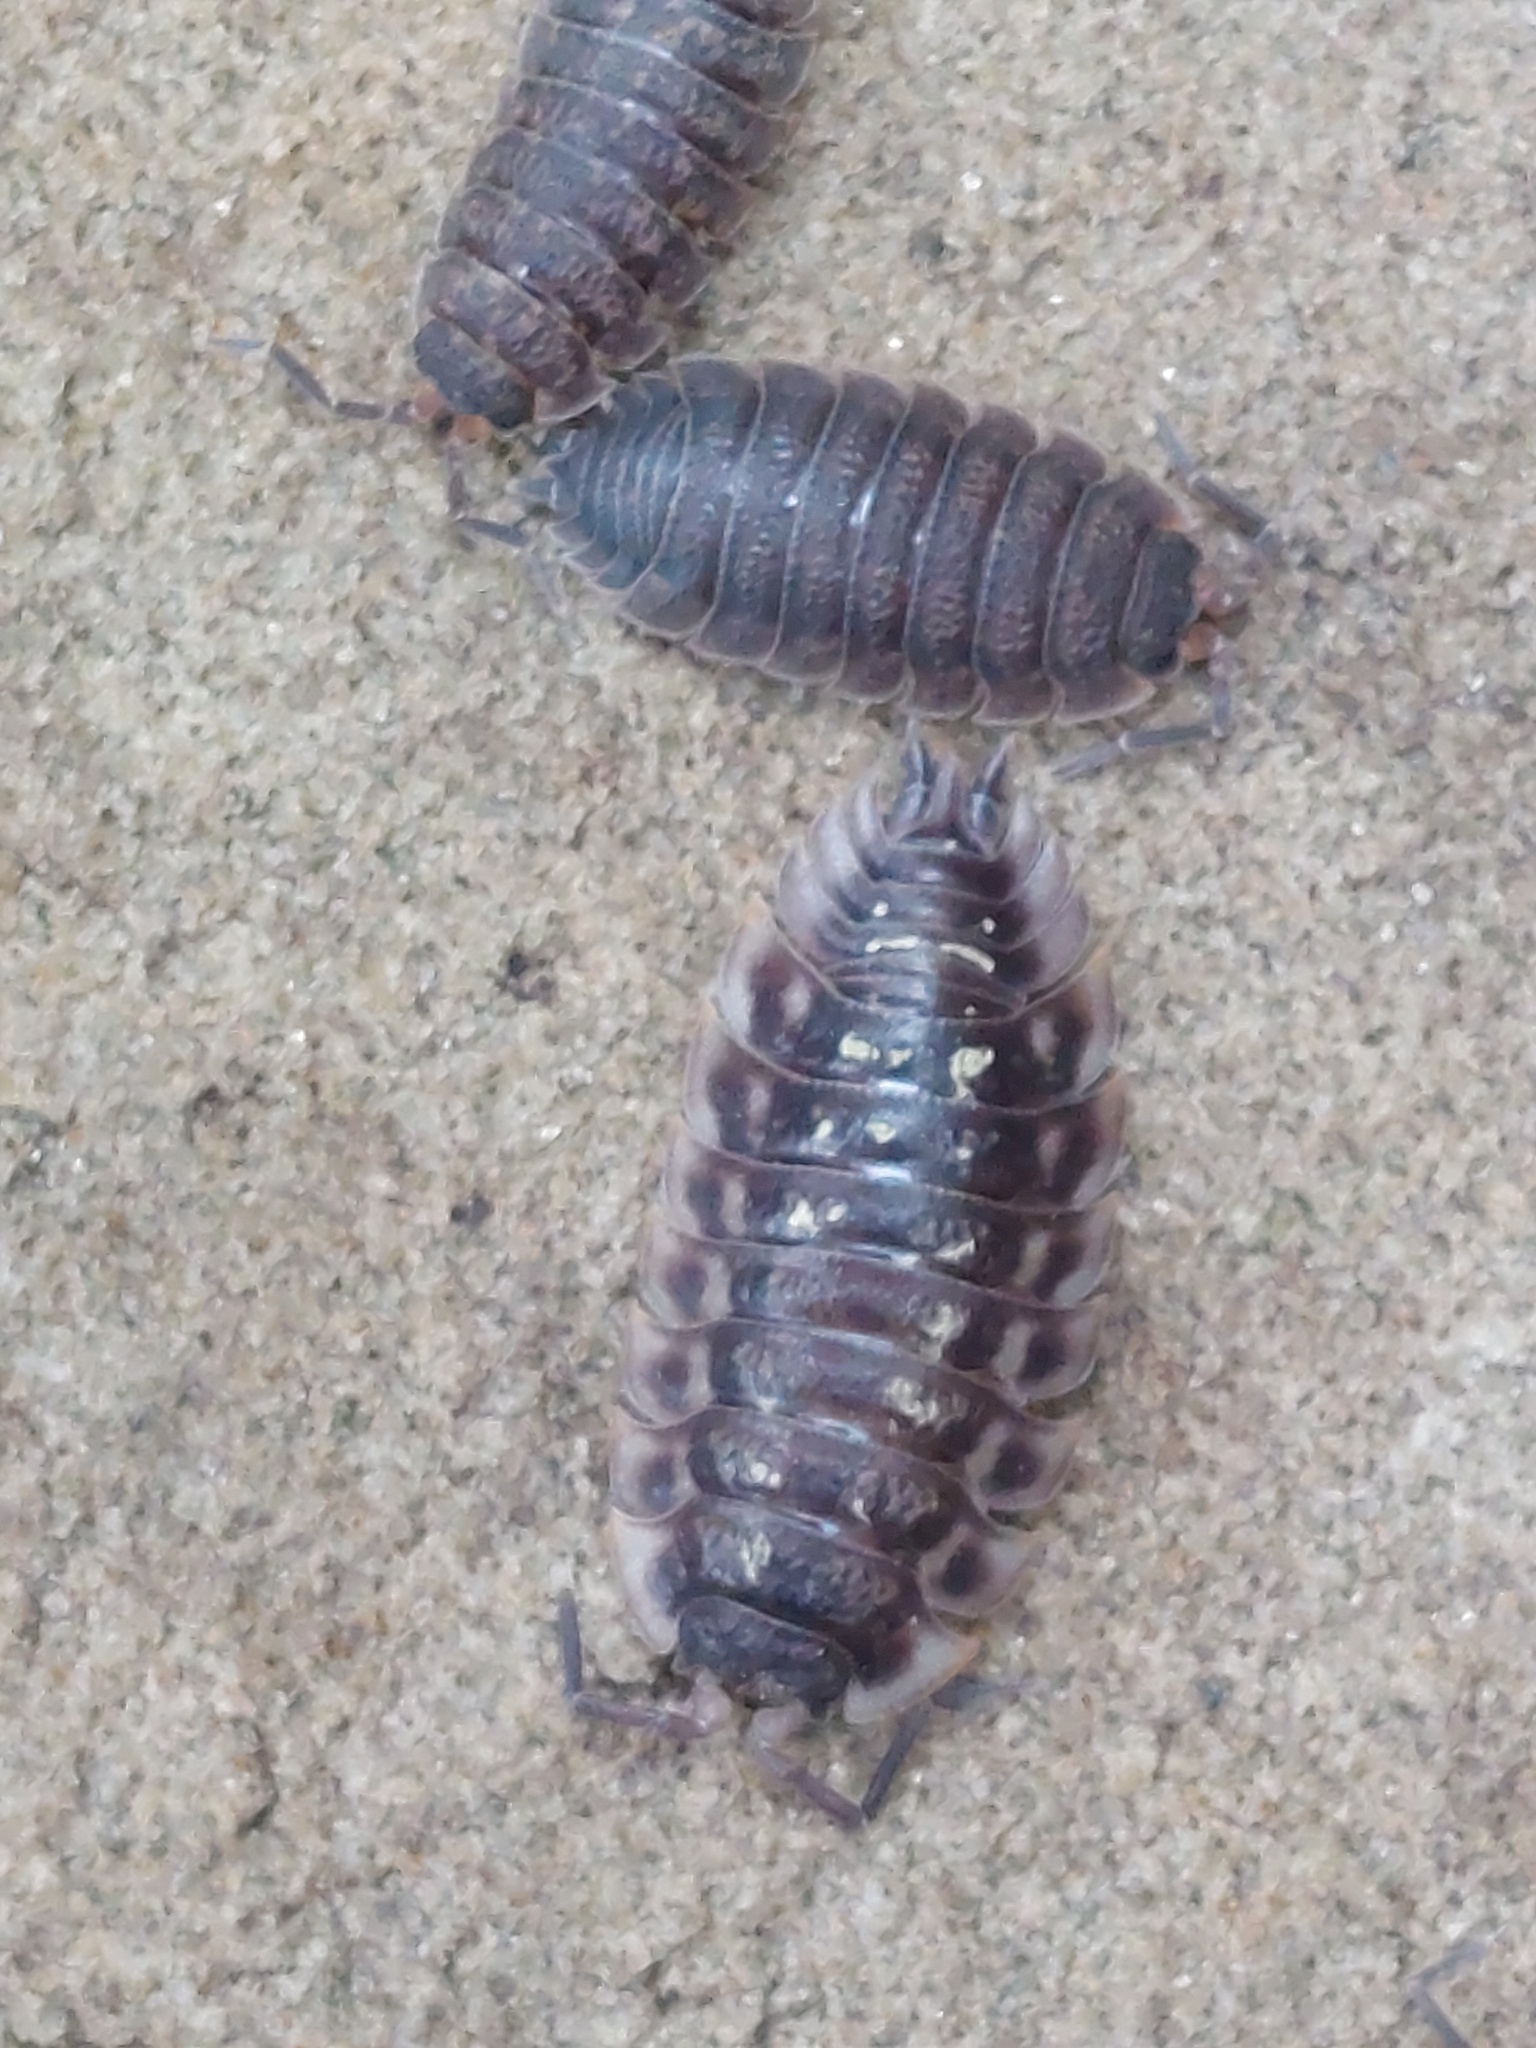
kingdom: Animalia
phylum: Arthropoda
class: Malacostraca
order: Isopoda
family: Oniscidae
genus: Oniscus
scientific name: Oniscus asellus
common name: Common shiny woodlouse
